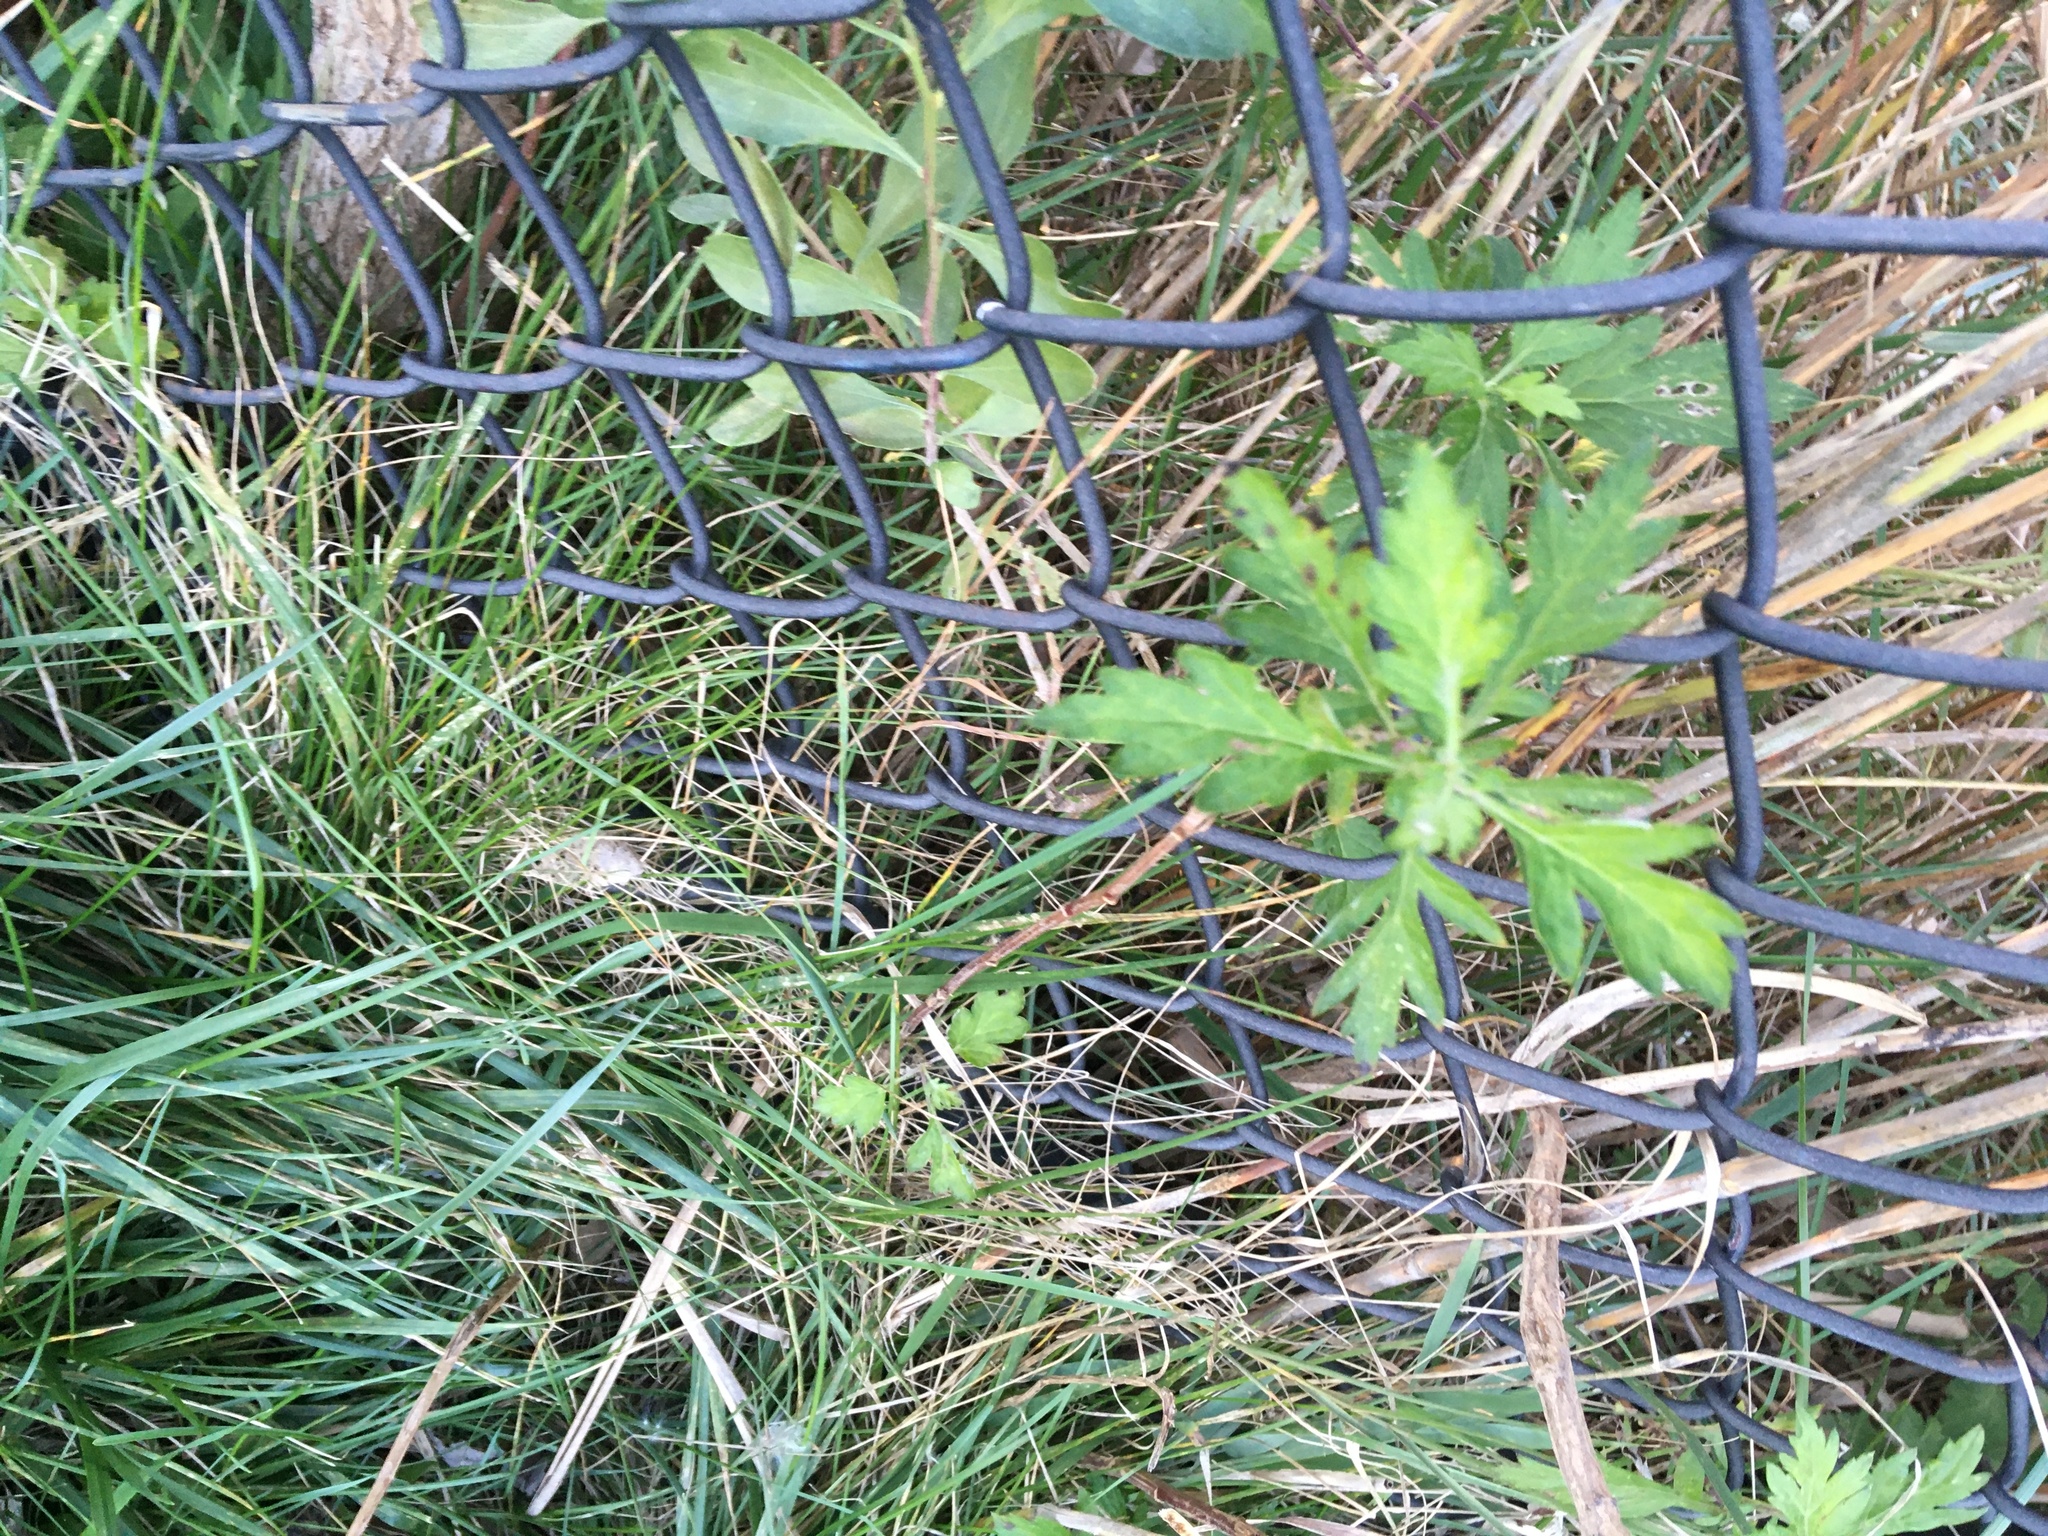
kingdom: Plantae
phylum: Tracheophyta
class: Magnoliopsida
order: Asterales
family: Asteraceae
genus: Artemisia
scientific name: Artemisia vulgaris
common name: Mugwort
